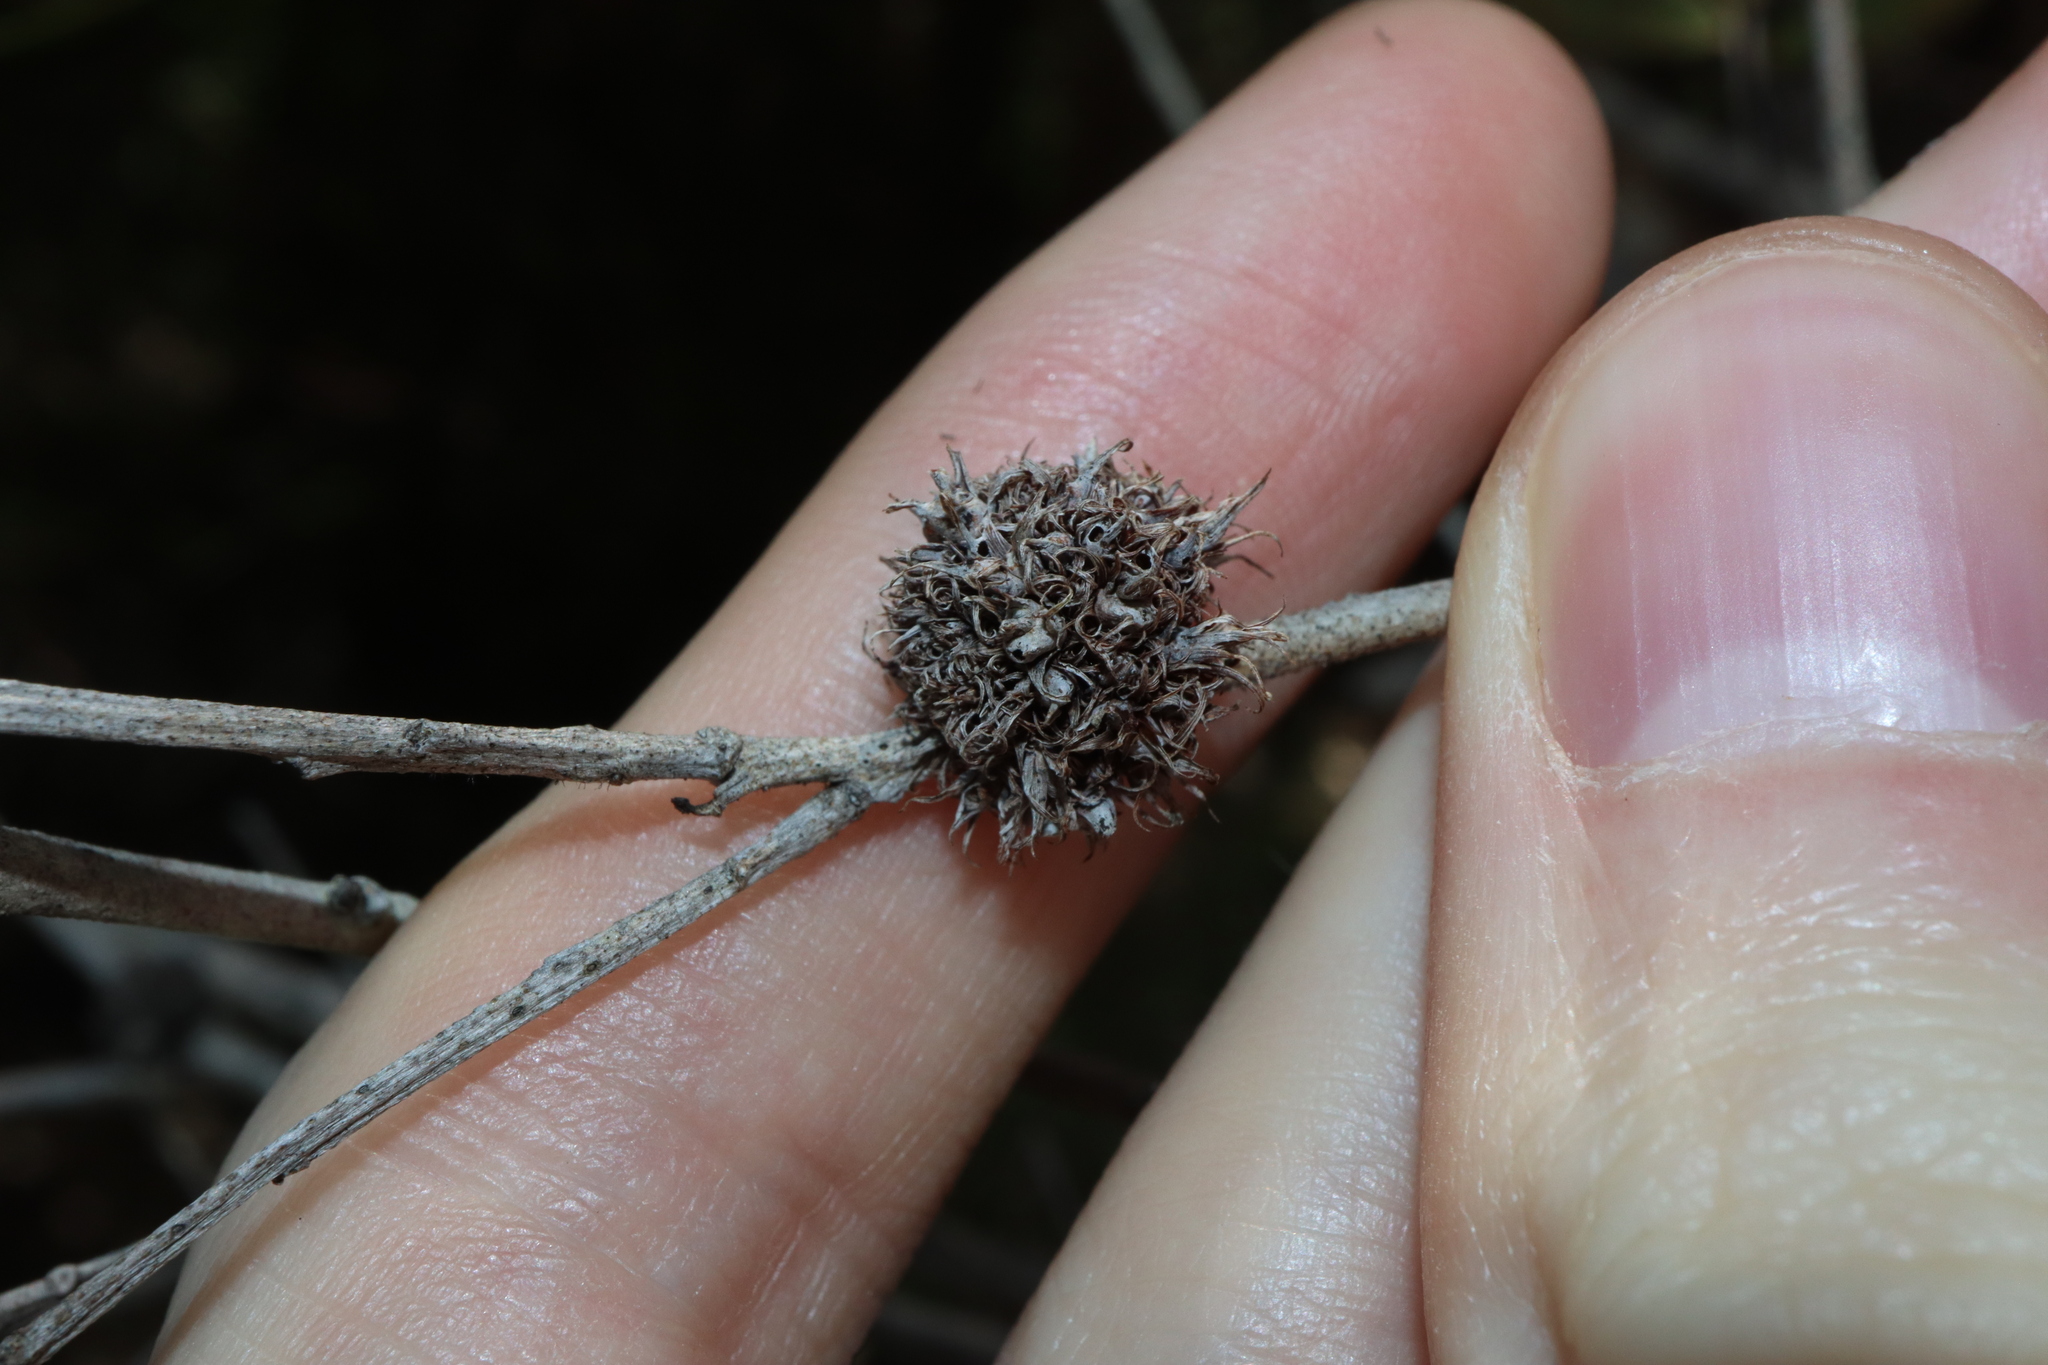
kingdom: Animalia
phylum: Arthropoda
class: Insecta
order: Hemiptera
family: Beesoniidae
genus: Beesonia
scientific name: Beesonia ferrugineus
